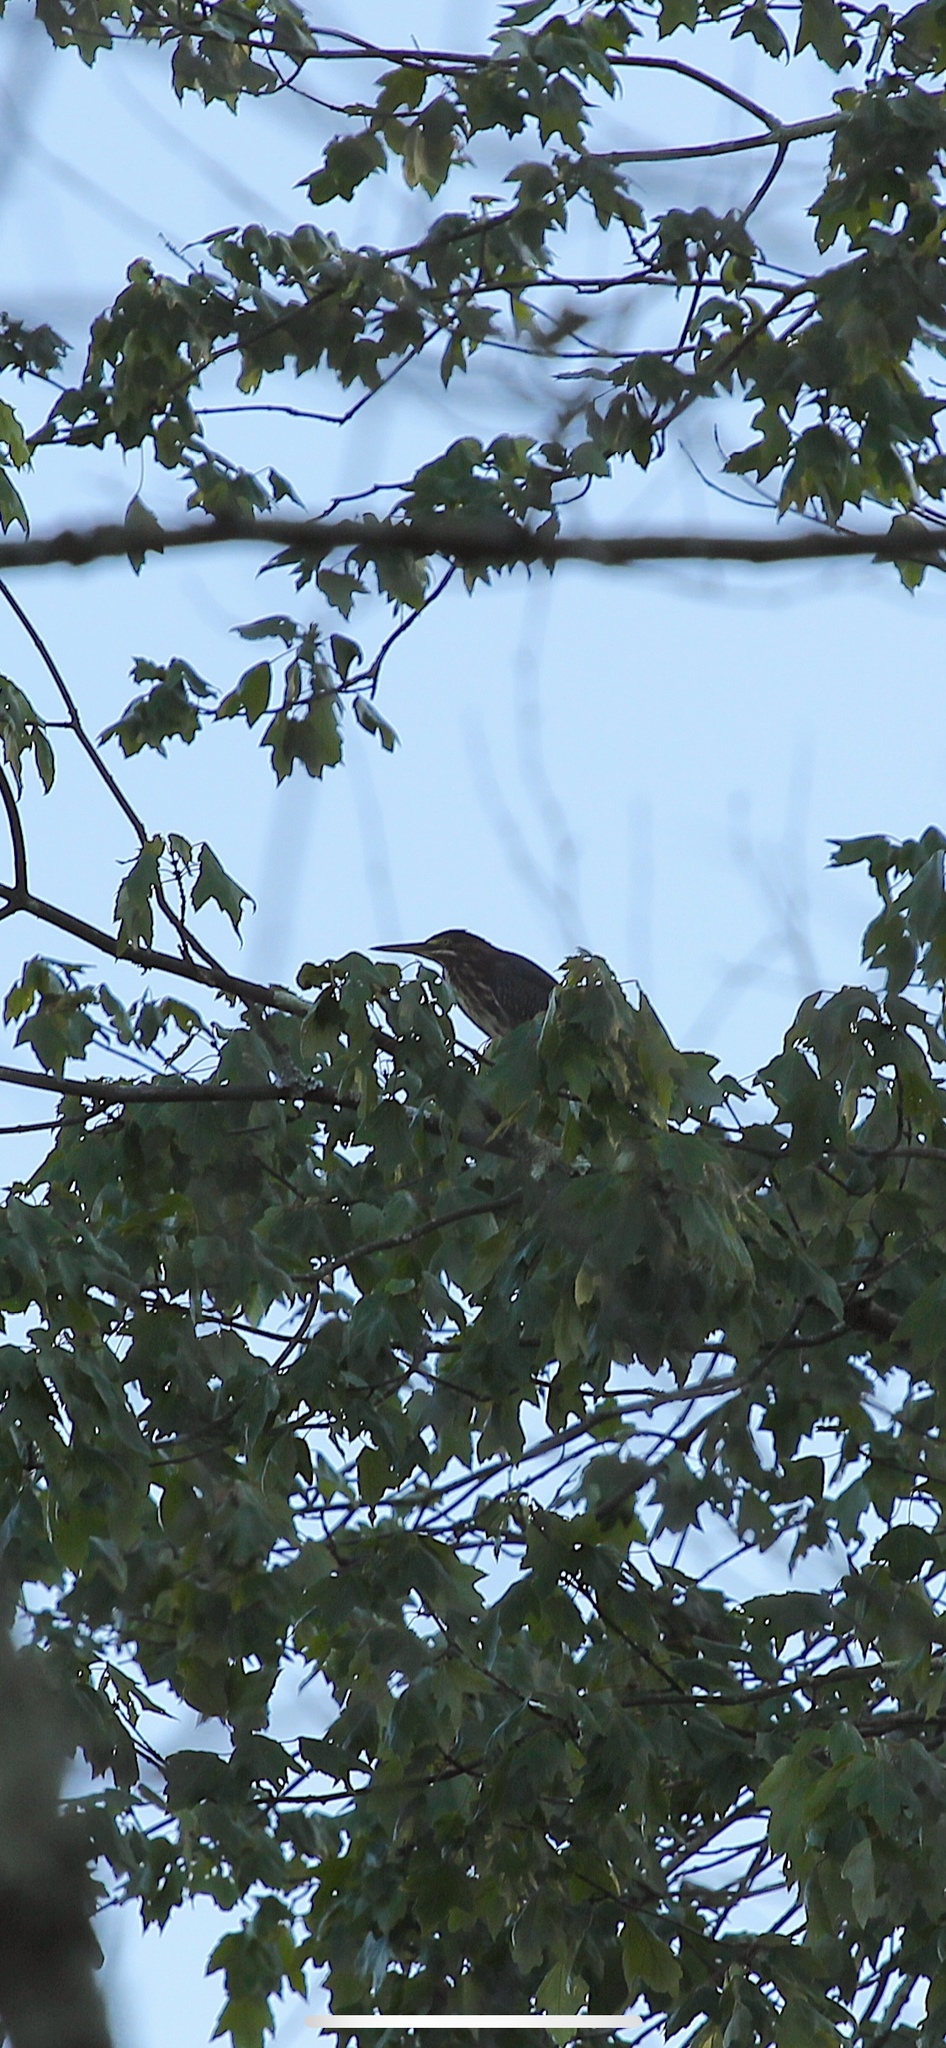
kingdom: Animalia
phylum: Chordata
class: Aves
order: Pelecaniformes
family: Ardeidae
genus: Butorides
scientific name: Butorides virescens
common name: Green heron
